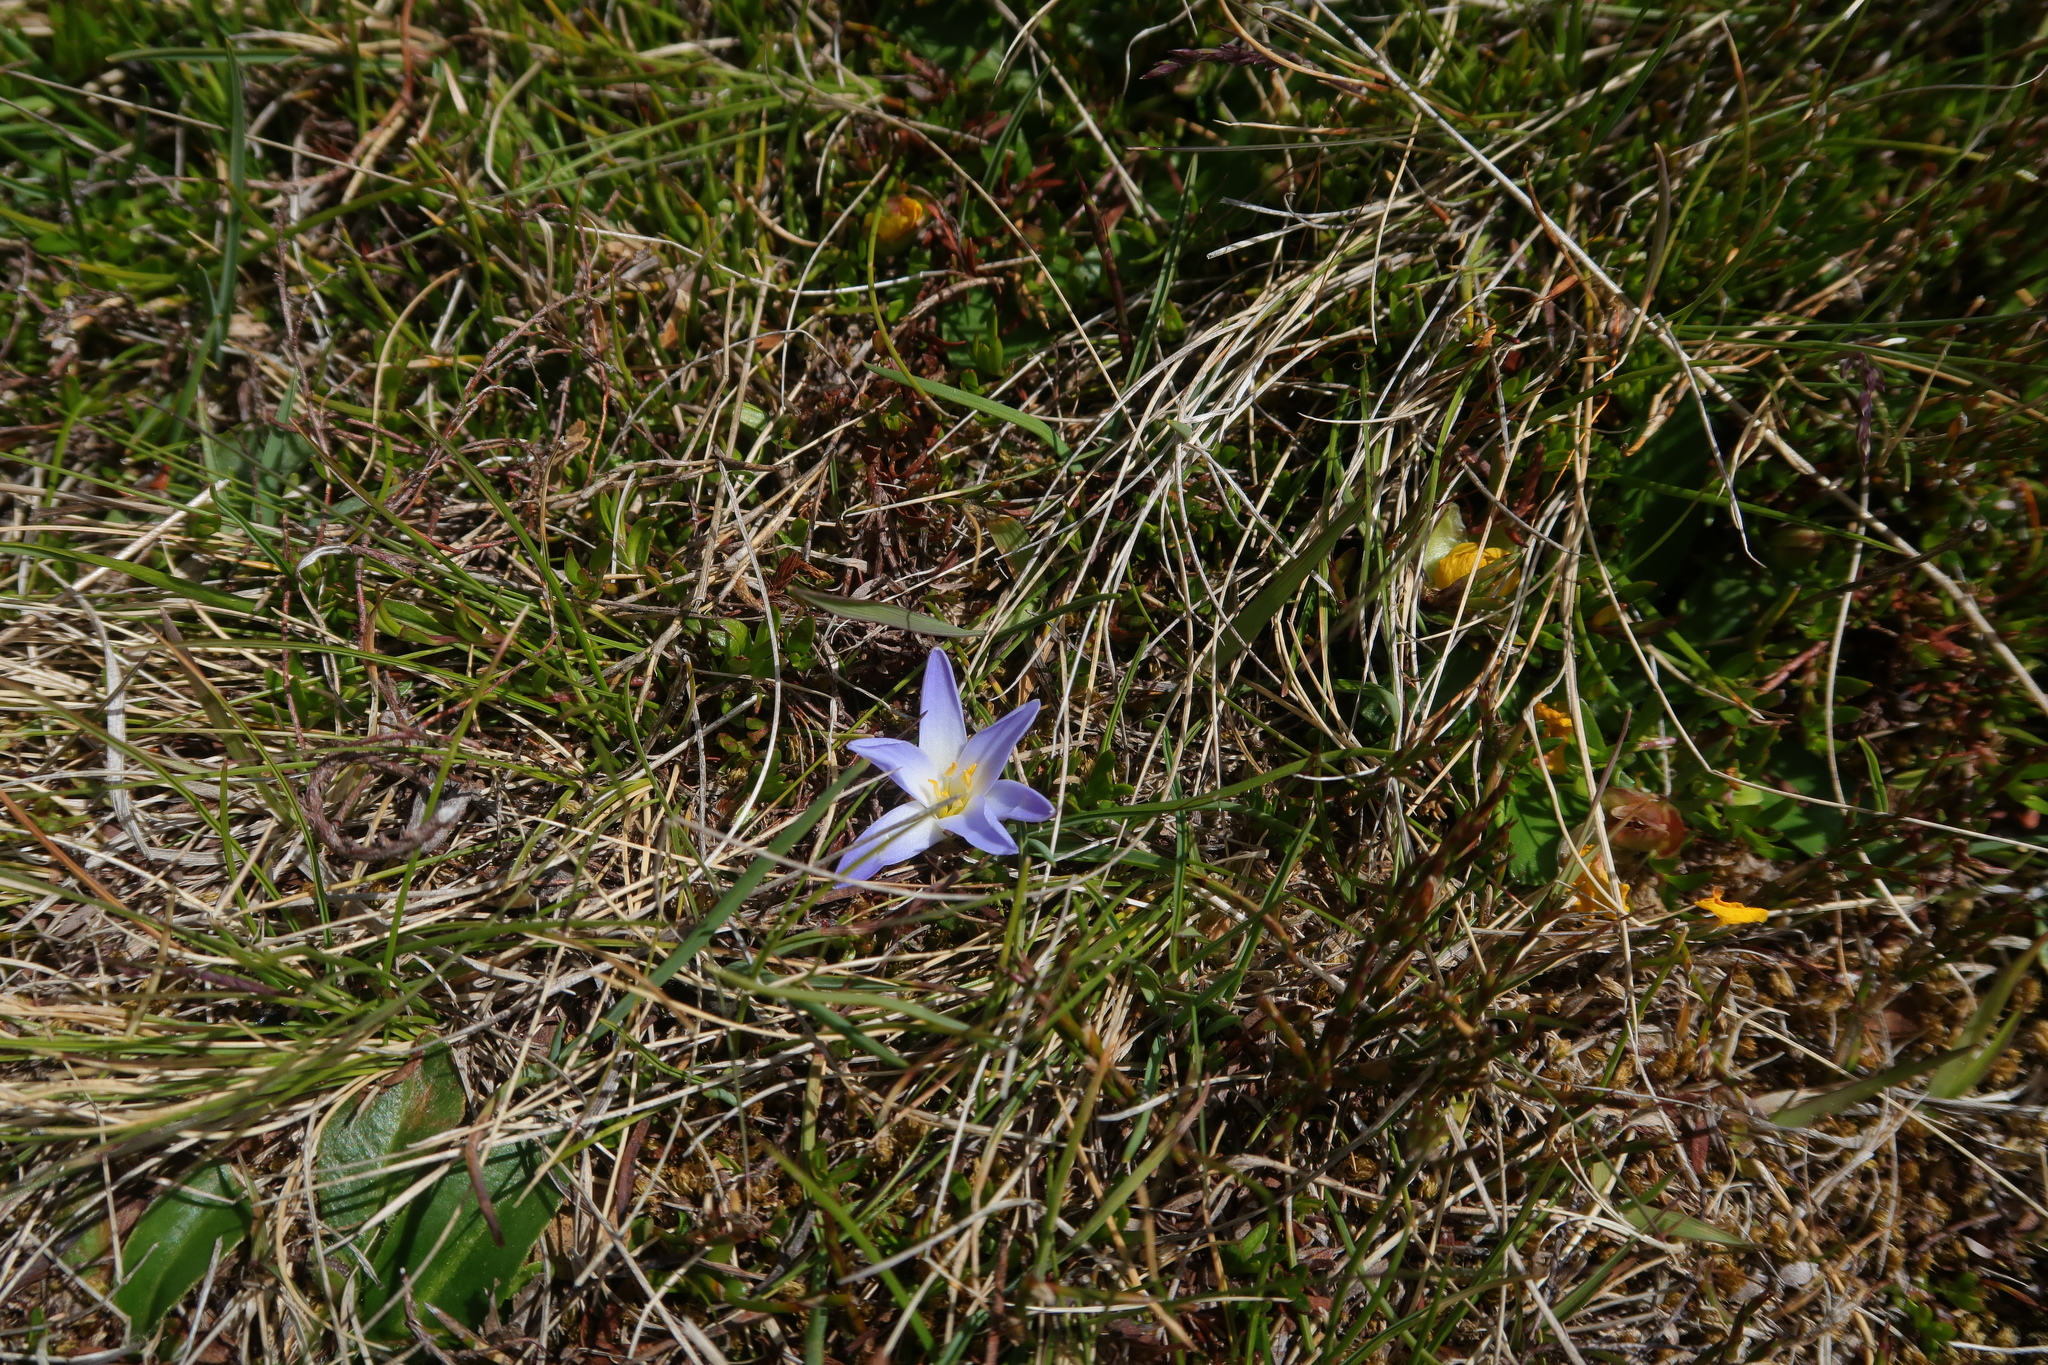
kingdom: Plantae
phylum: Tracheophyta
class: Liliopsida
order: Asparagales
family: Asphodelaceae
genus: Herpolirion
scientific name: Herpolirion novae-zelandiae
